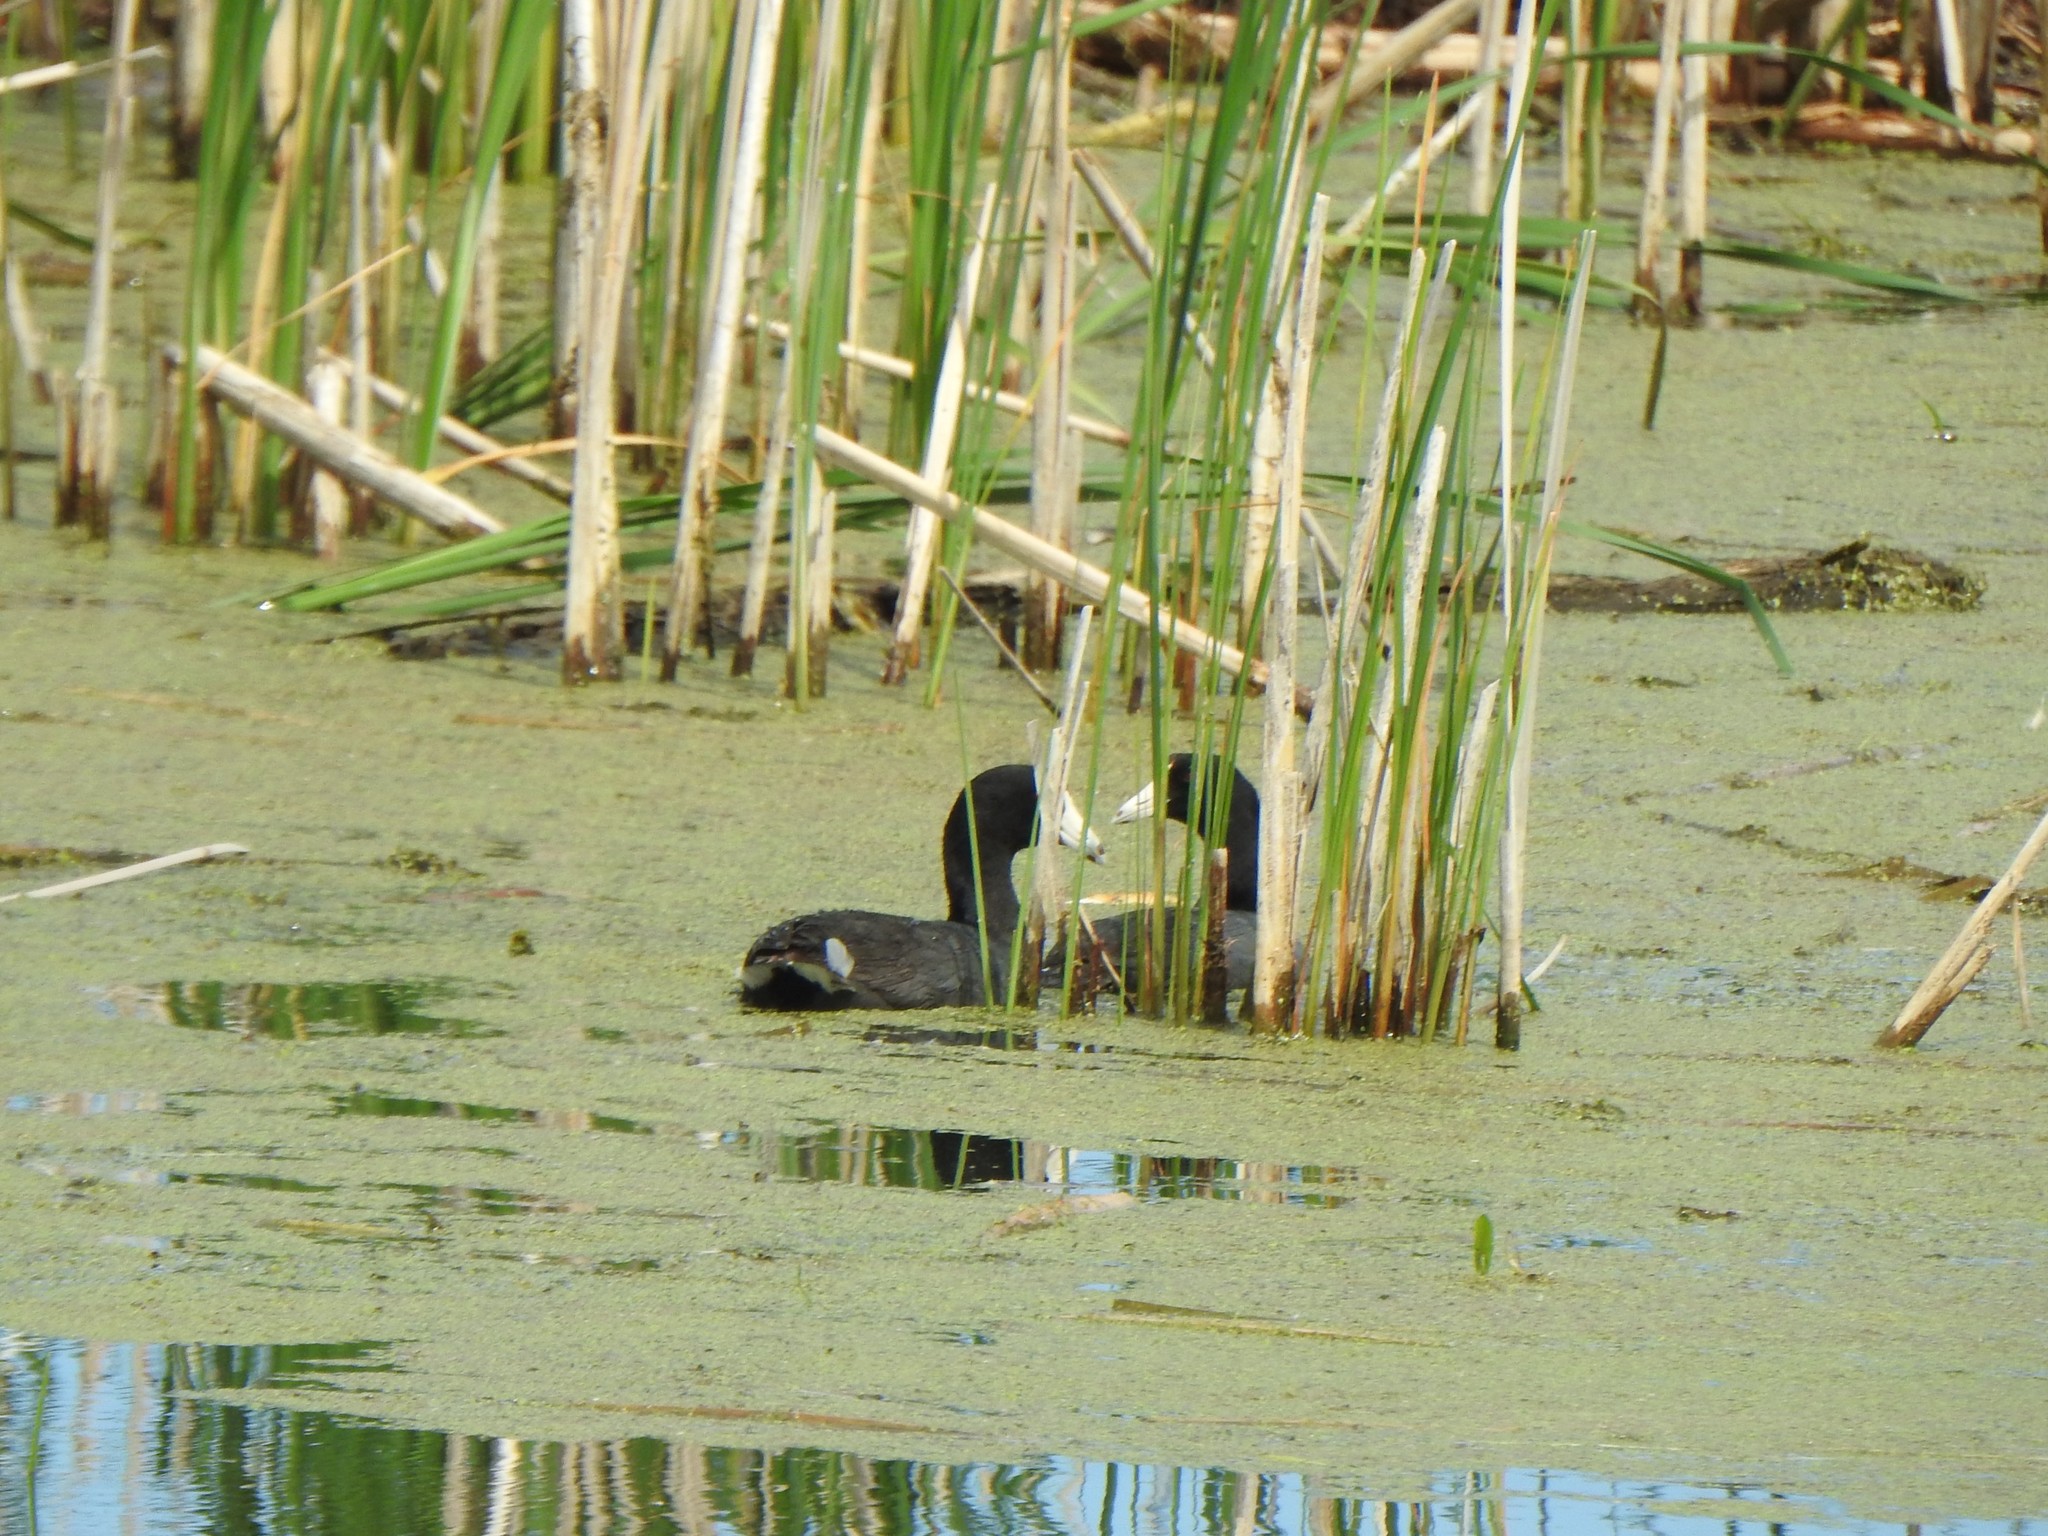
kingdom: Animalia
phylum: Chordata
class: Aves
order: Gruiformes
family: Rallidae
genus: Fulica
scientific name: Fulica americana
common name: American coot
